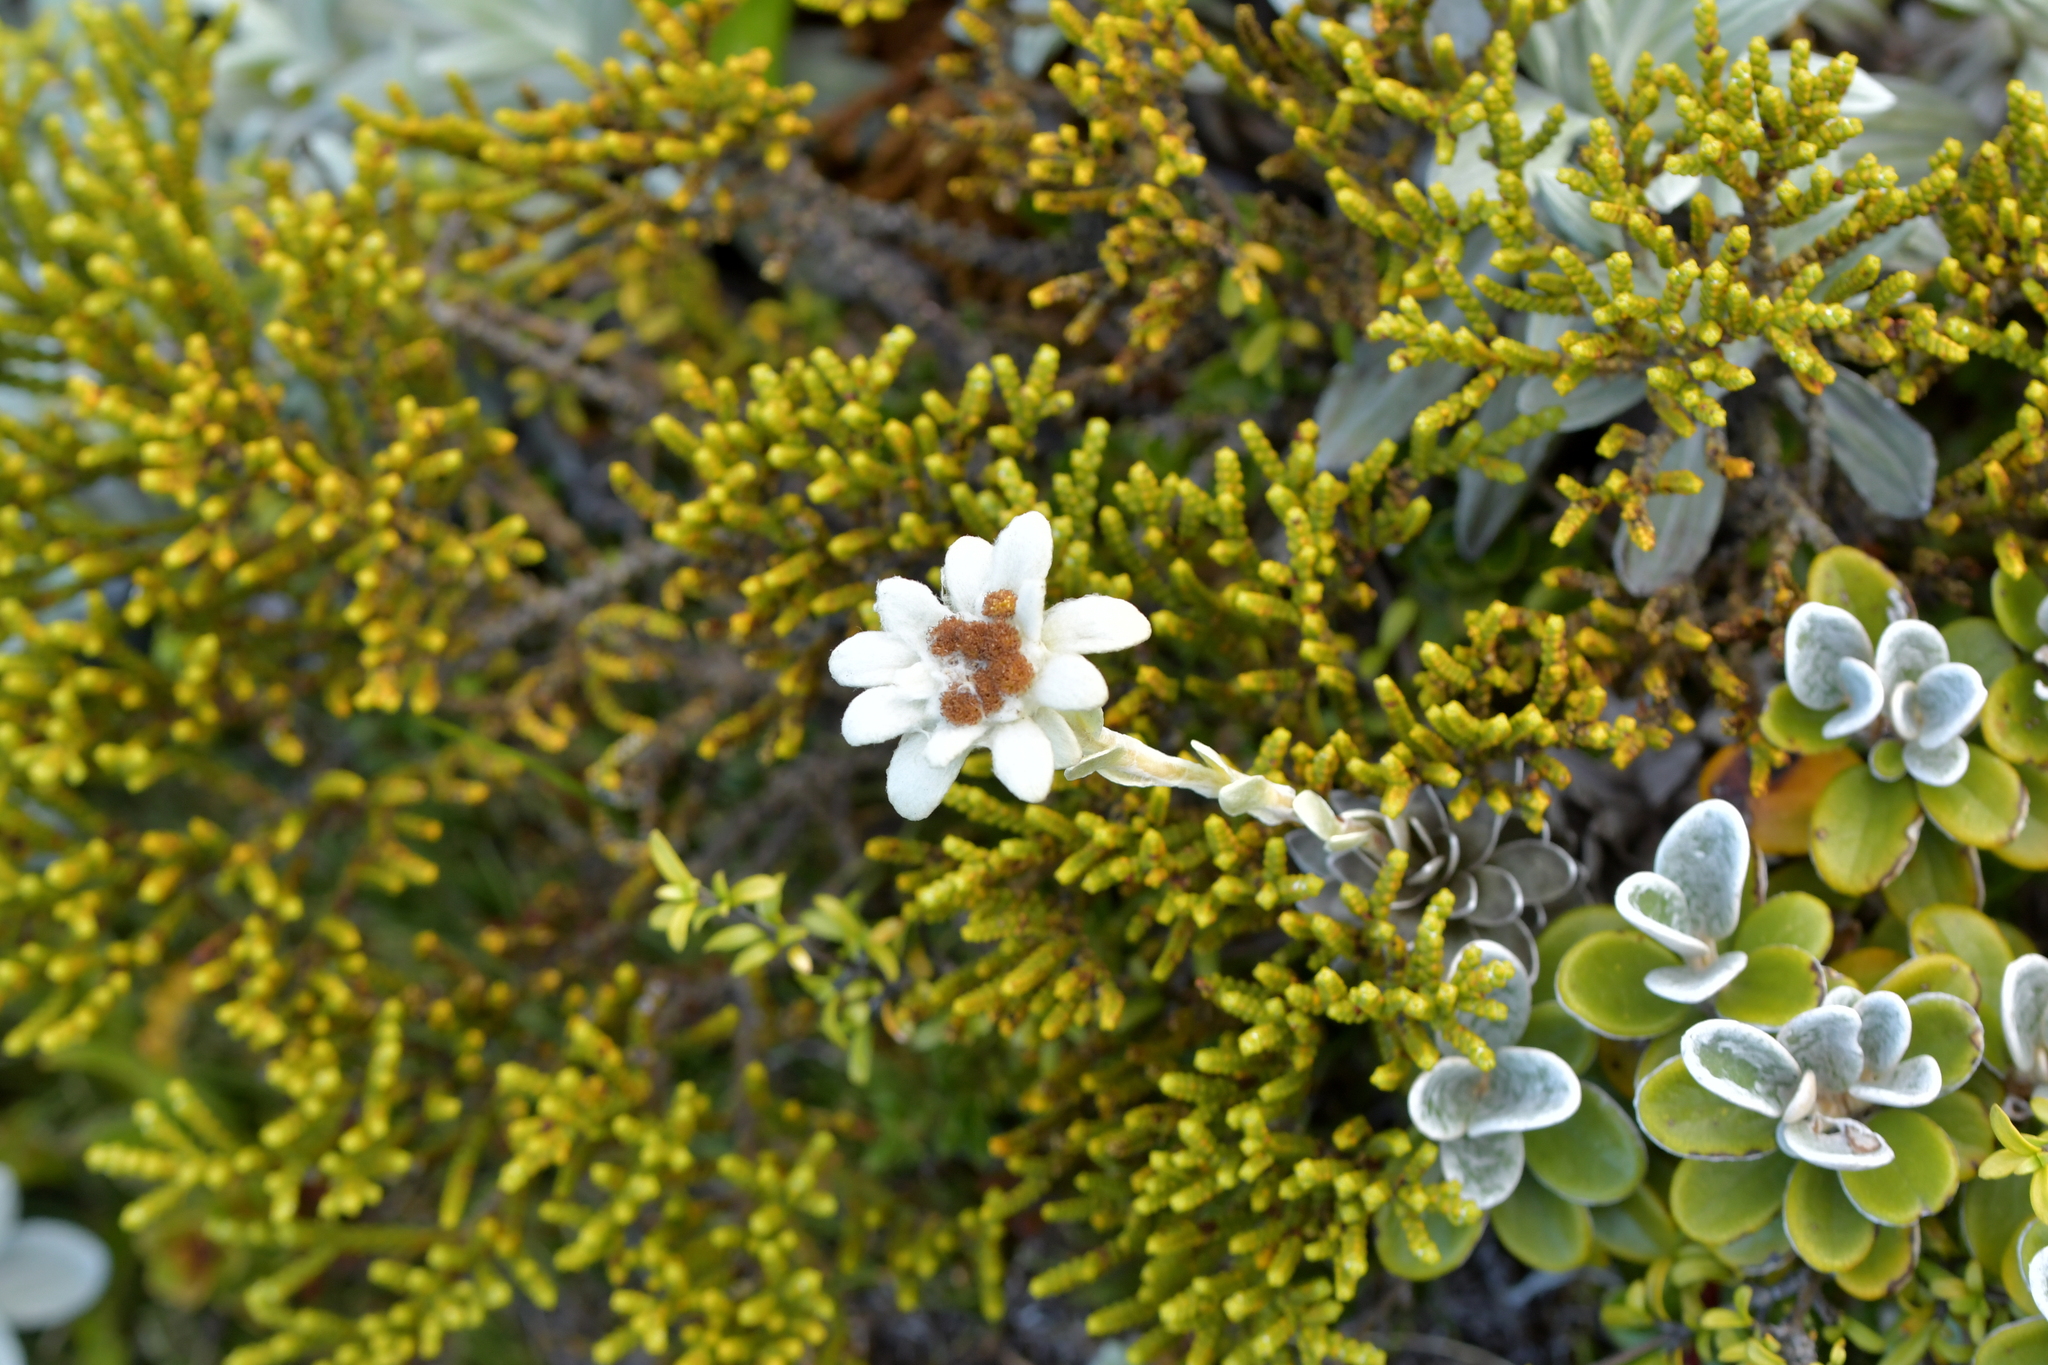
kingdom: Plantae
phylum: Tracheophyta
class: Magnoliopsida
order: Asterales
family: Asteraceae
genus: Leucogenes
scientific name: Leucogenes leontopodium
